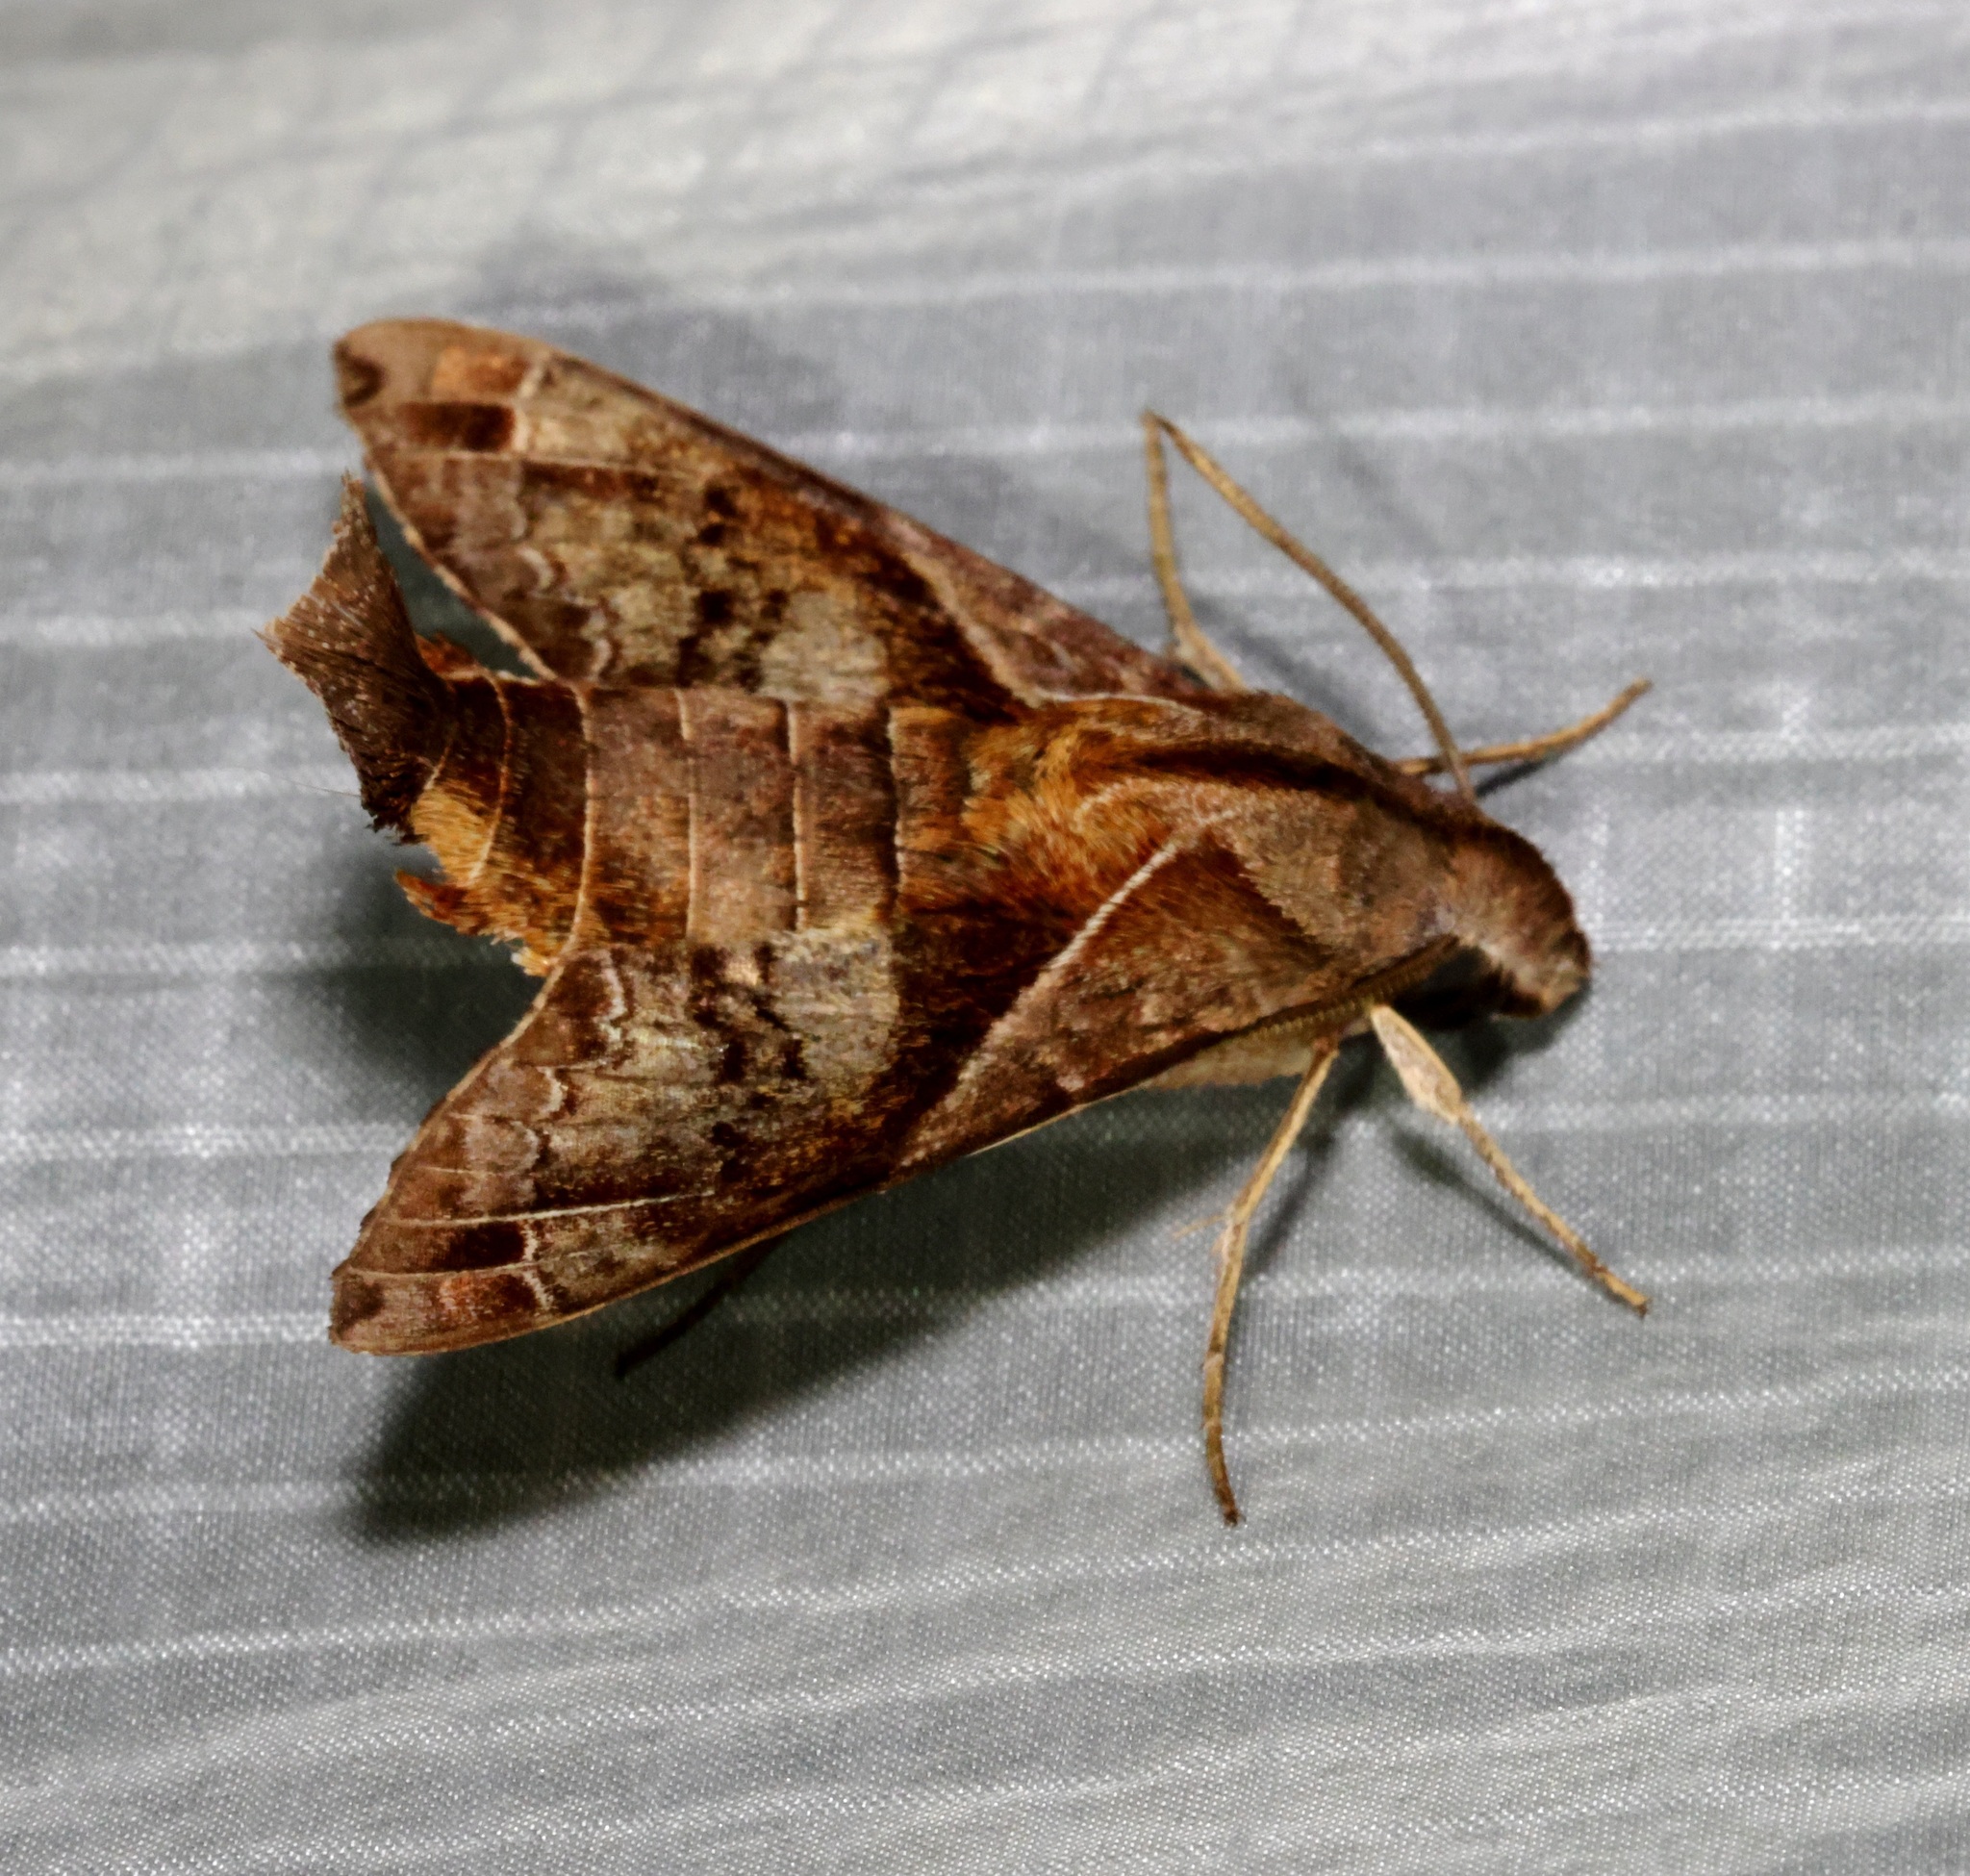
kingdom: Animalia
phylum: Arthropoda
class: Insecta
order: Lepidoptera
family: Sphingidae
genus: Macroglossum
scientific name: Macroglossum fritzei
